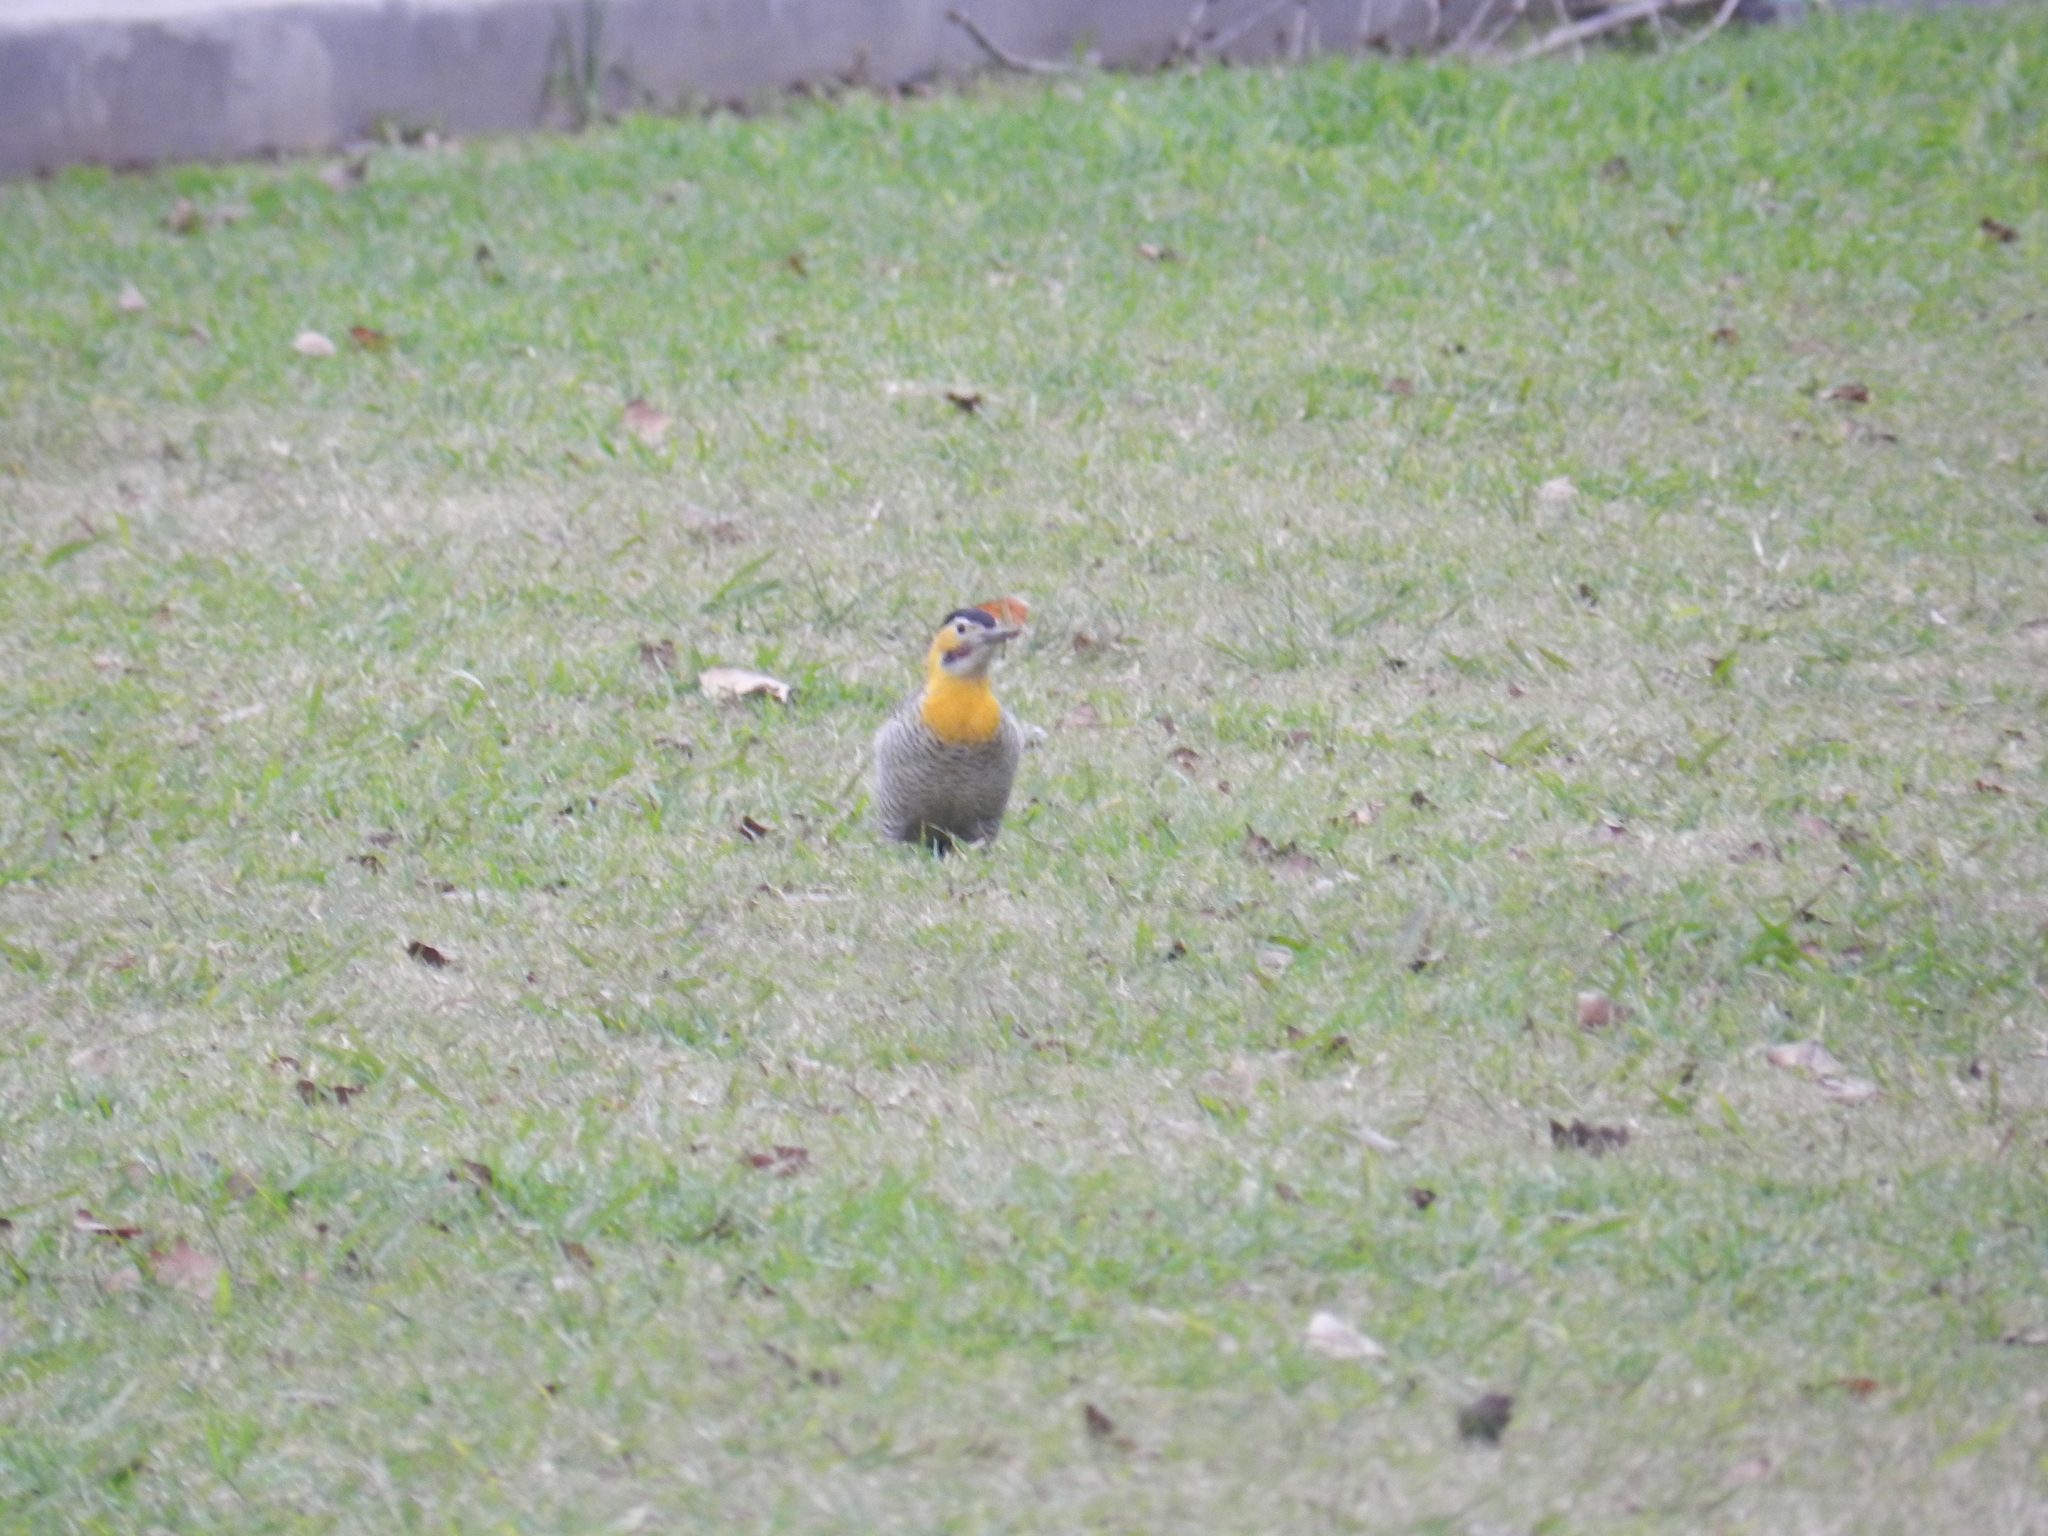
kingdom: Animalia
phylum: Chordata
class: Aves
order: Piciformes
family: Picidae
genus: Colaptes
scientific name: Colaptes campestris
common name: Campo flicker
